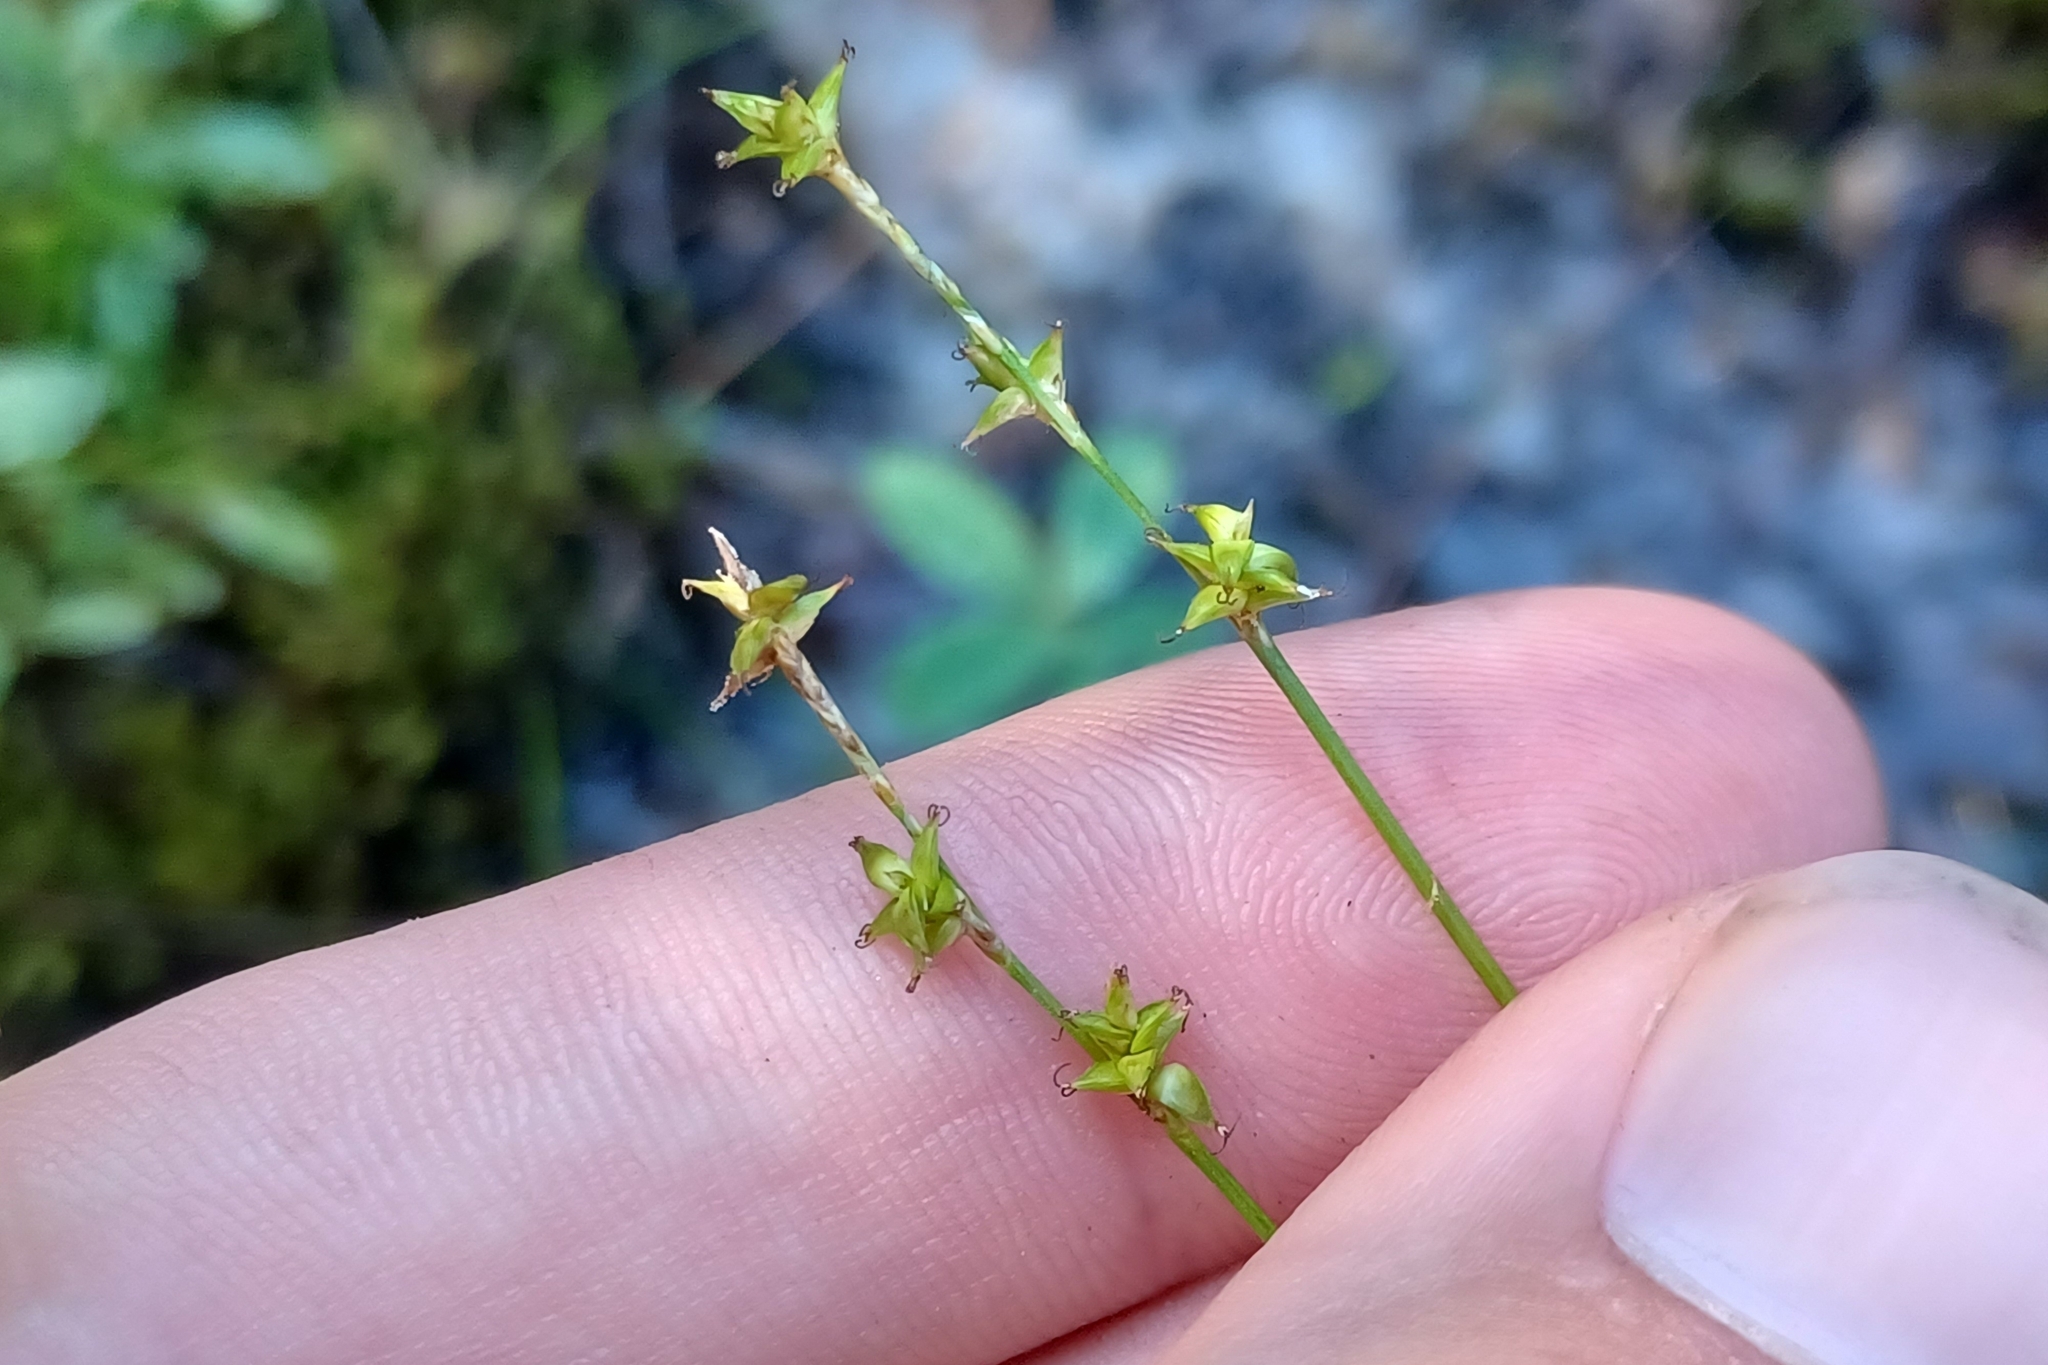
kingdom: Plantae
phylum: Tracheophyta
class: Liliopsida
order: Poales
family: Cyperaceae
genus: Carex
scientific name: Carex interior
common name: Inland sedge
